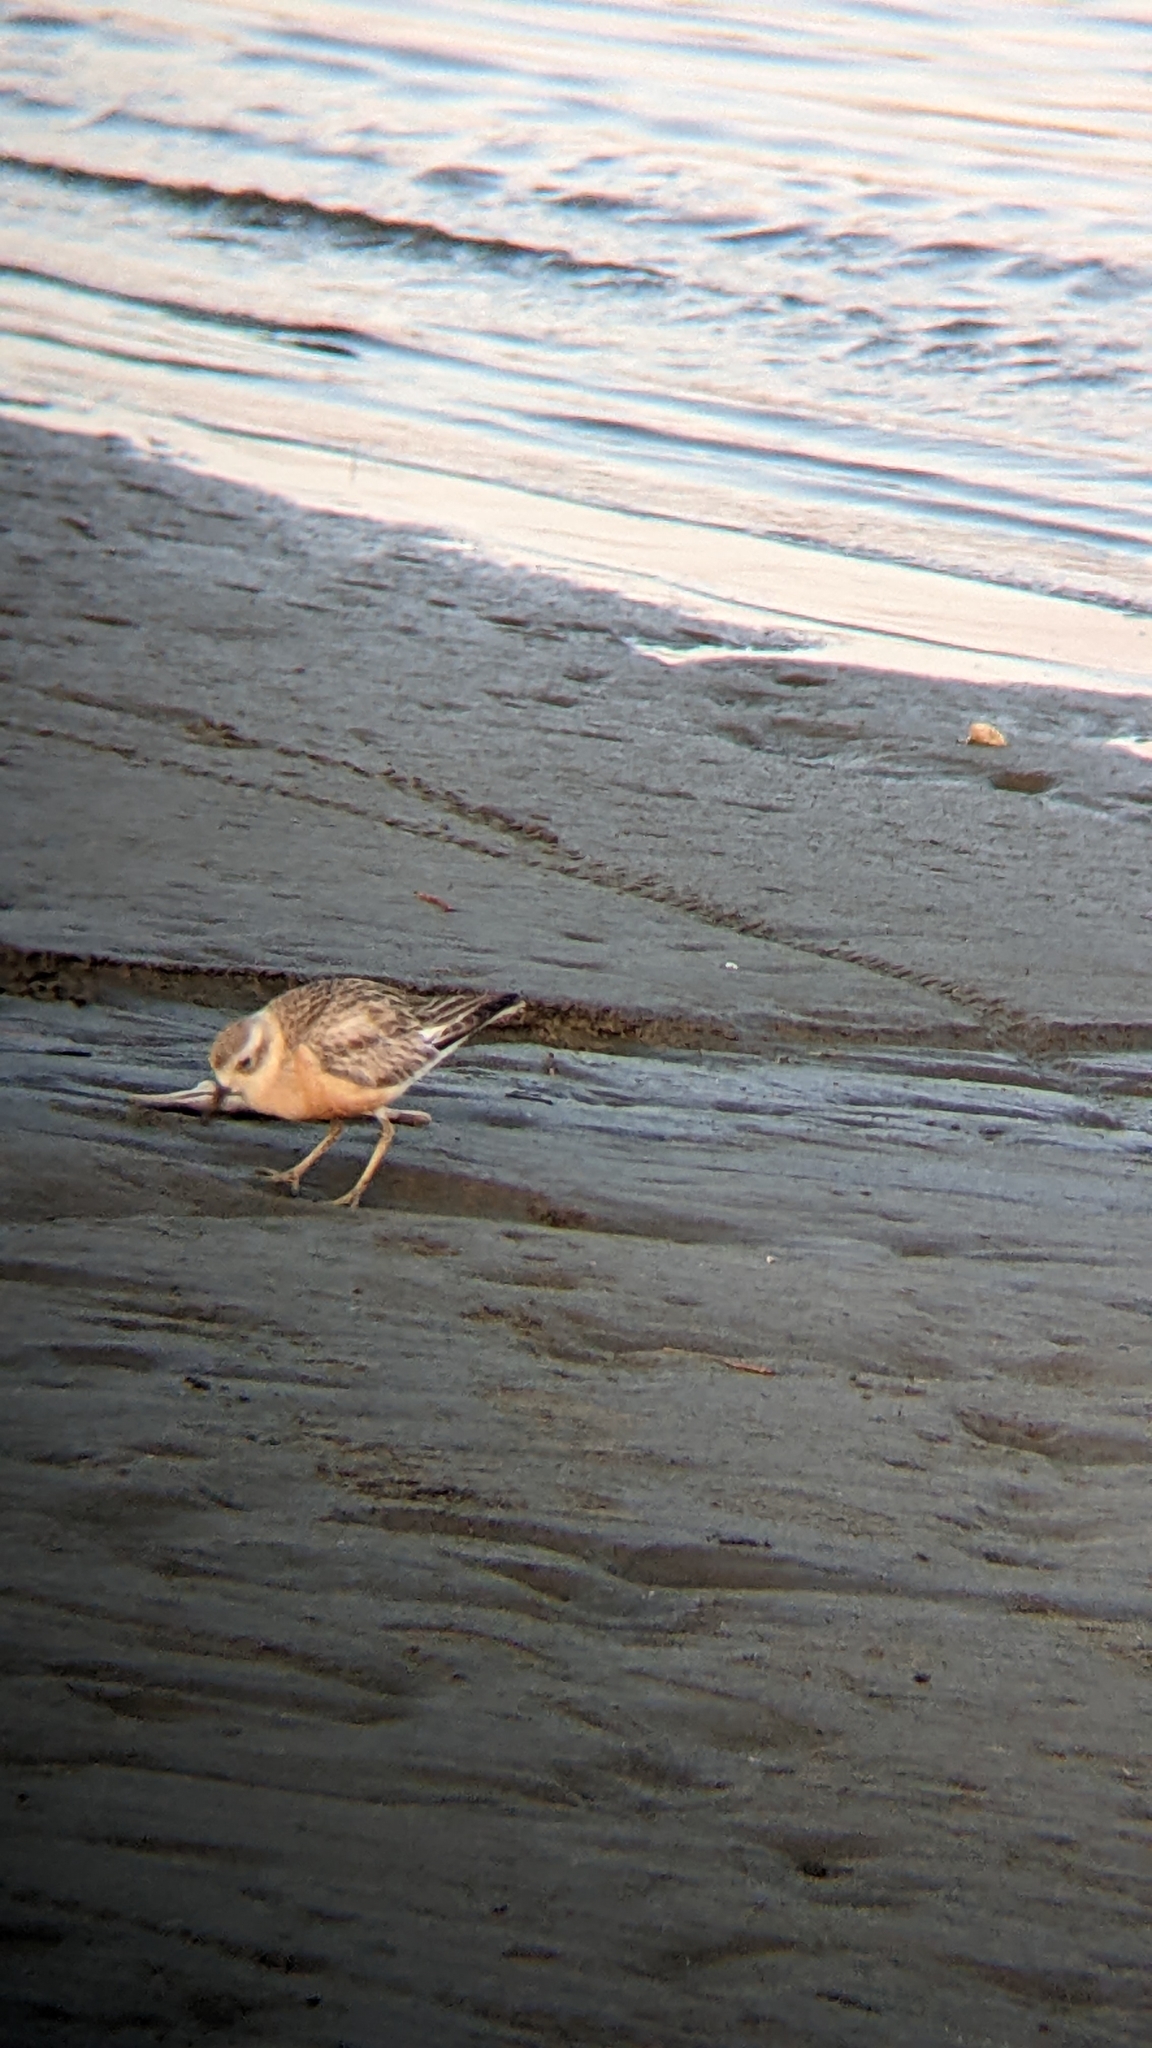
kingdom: Animalia
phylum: Chordata
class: Aves
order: Charadriiformes
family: Charadriidae
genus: Anarhynchus
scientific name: Anarhynchus
